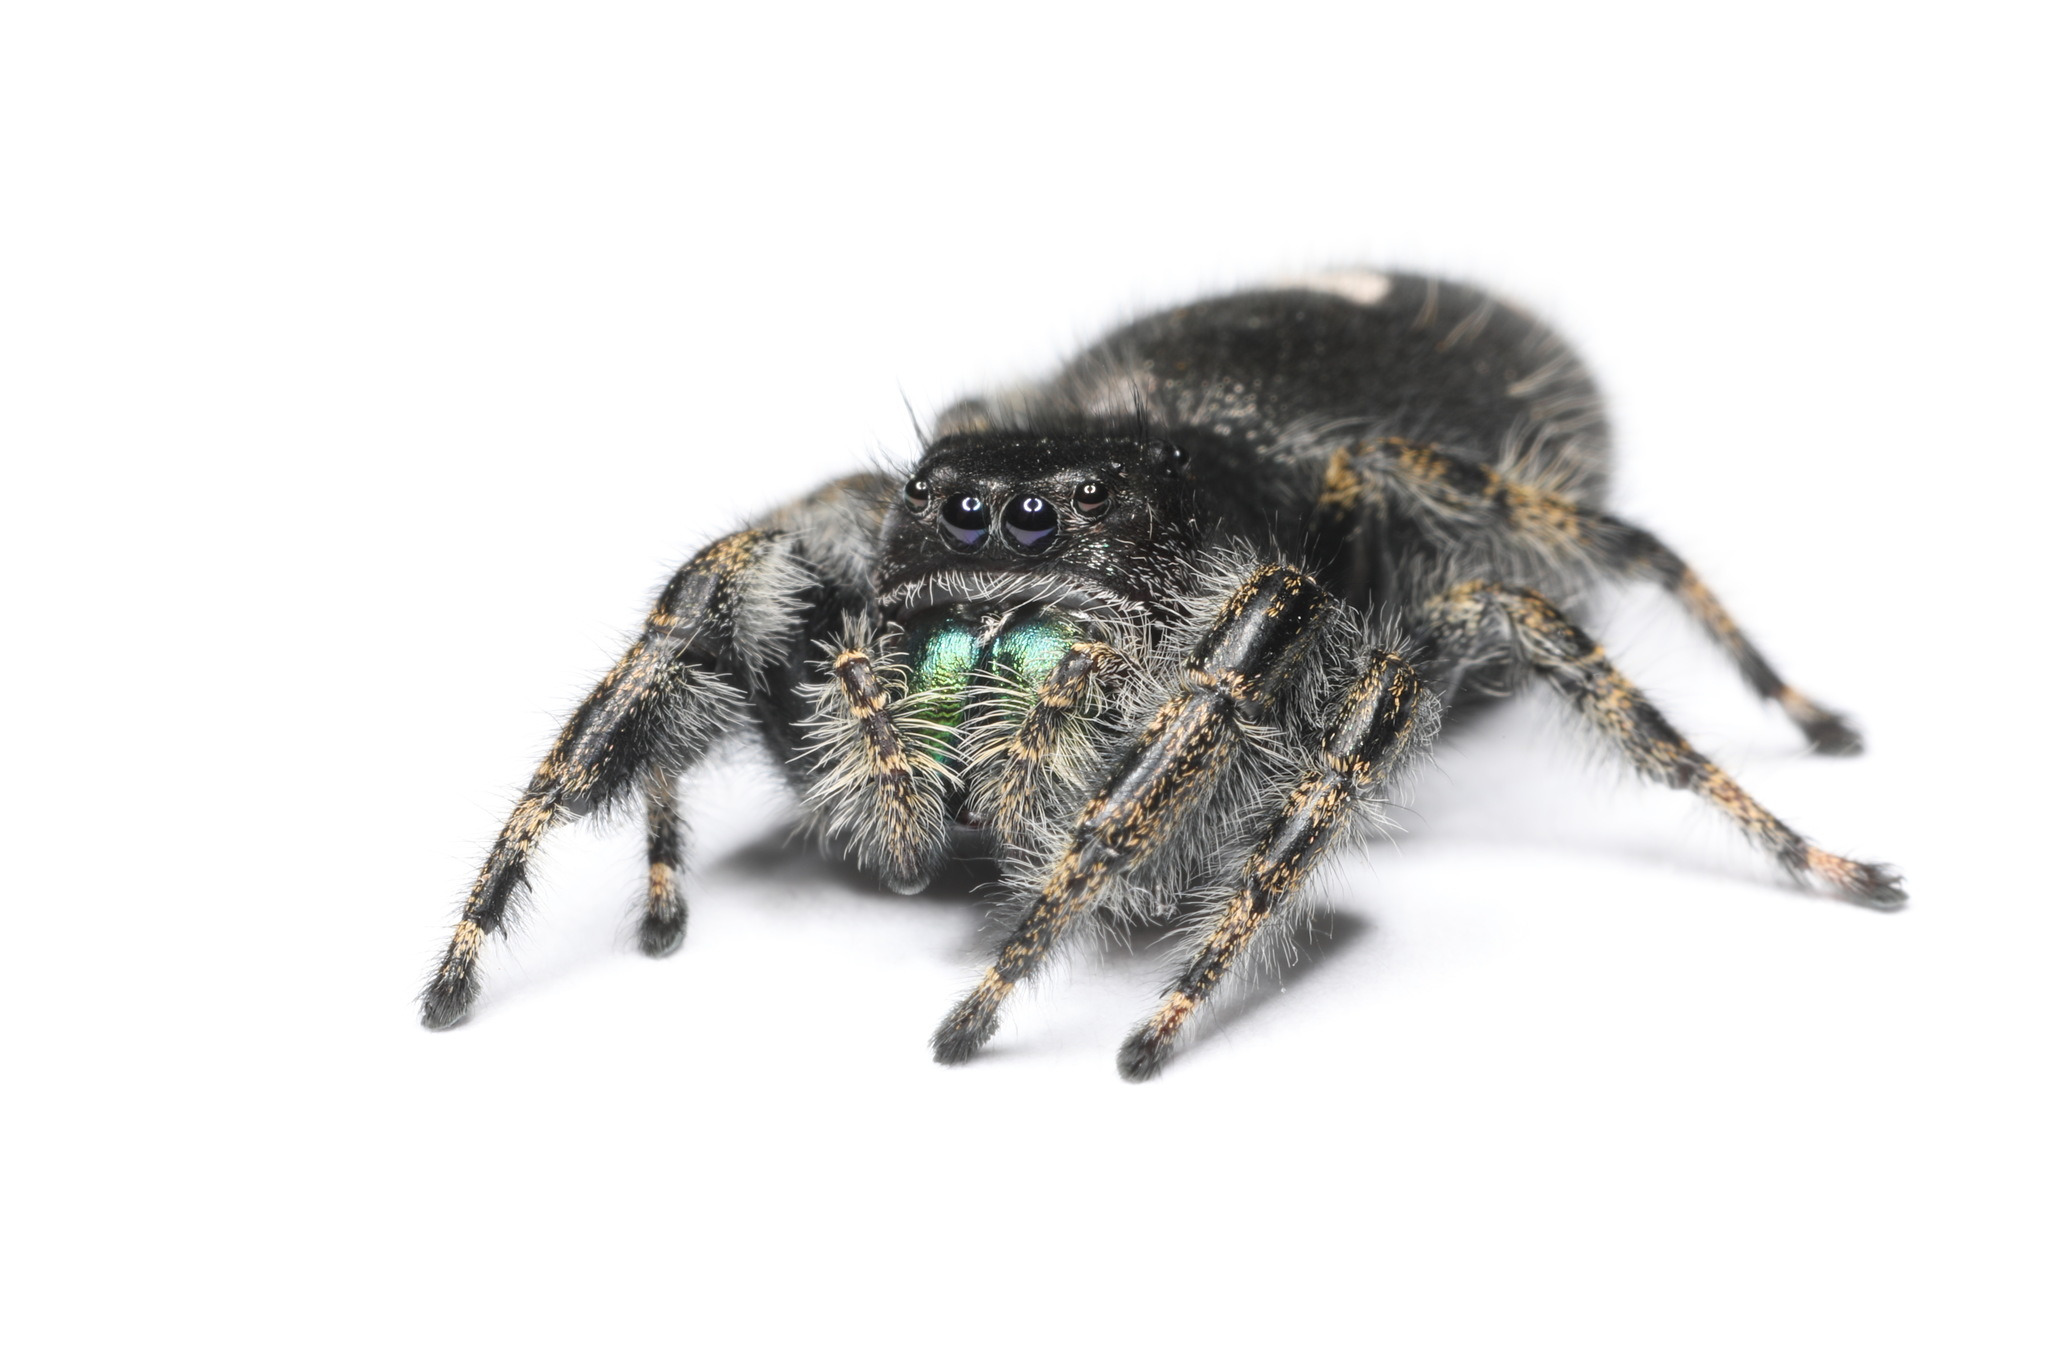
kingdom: Animalia
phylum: Arthropoda
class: Arachnida
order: Araneae
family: Salticidae
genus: Phidippus
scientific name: Phidippus audax
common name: Bold jumper
